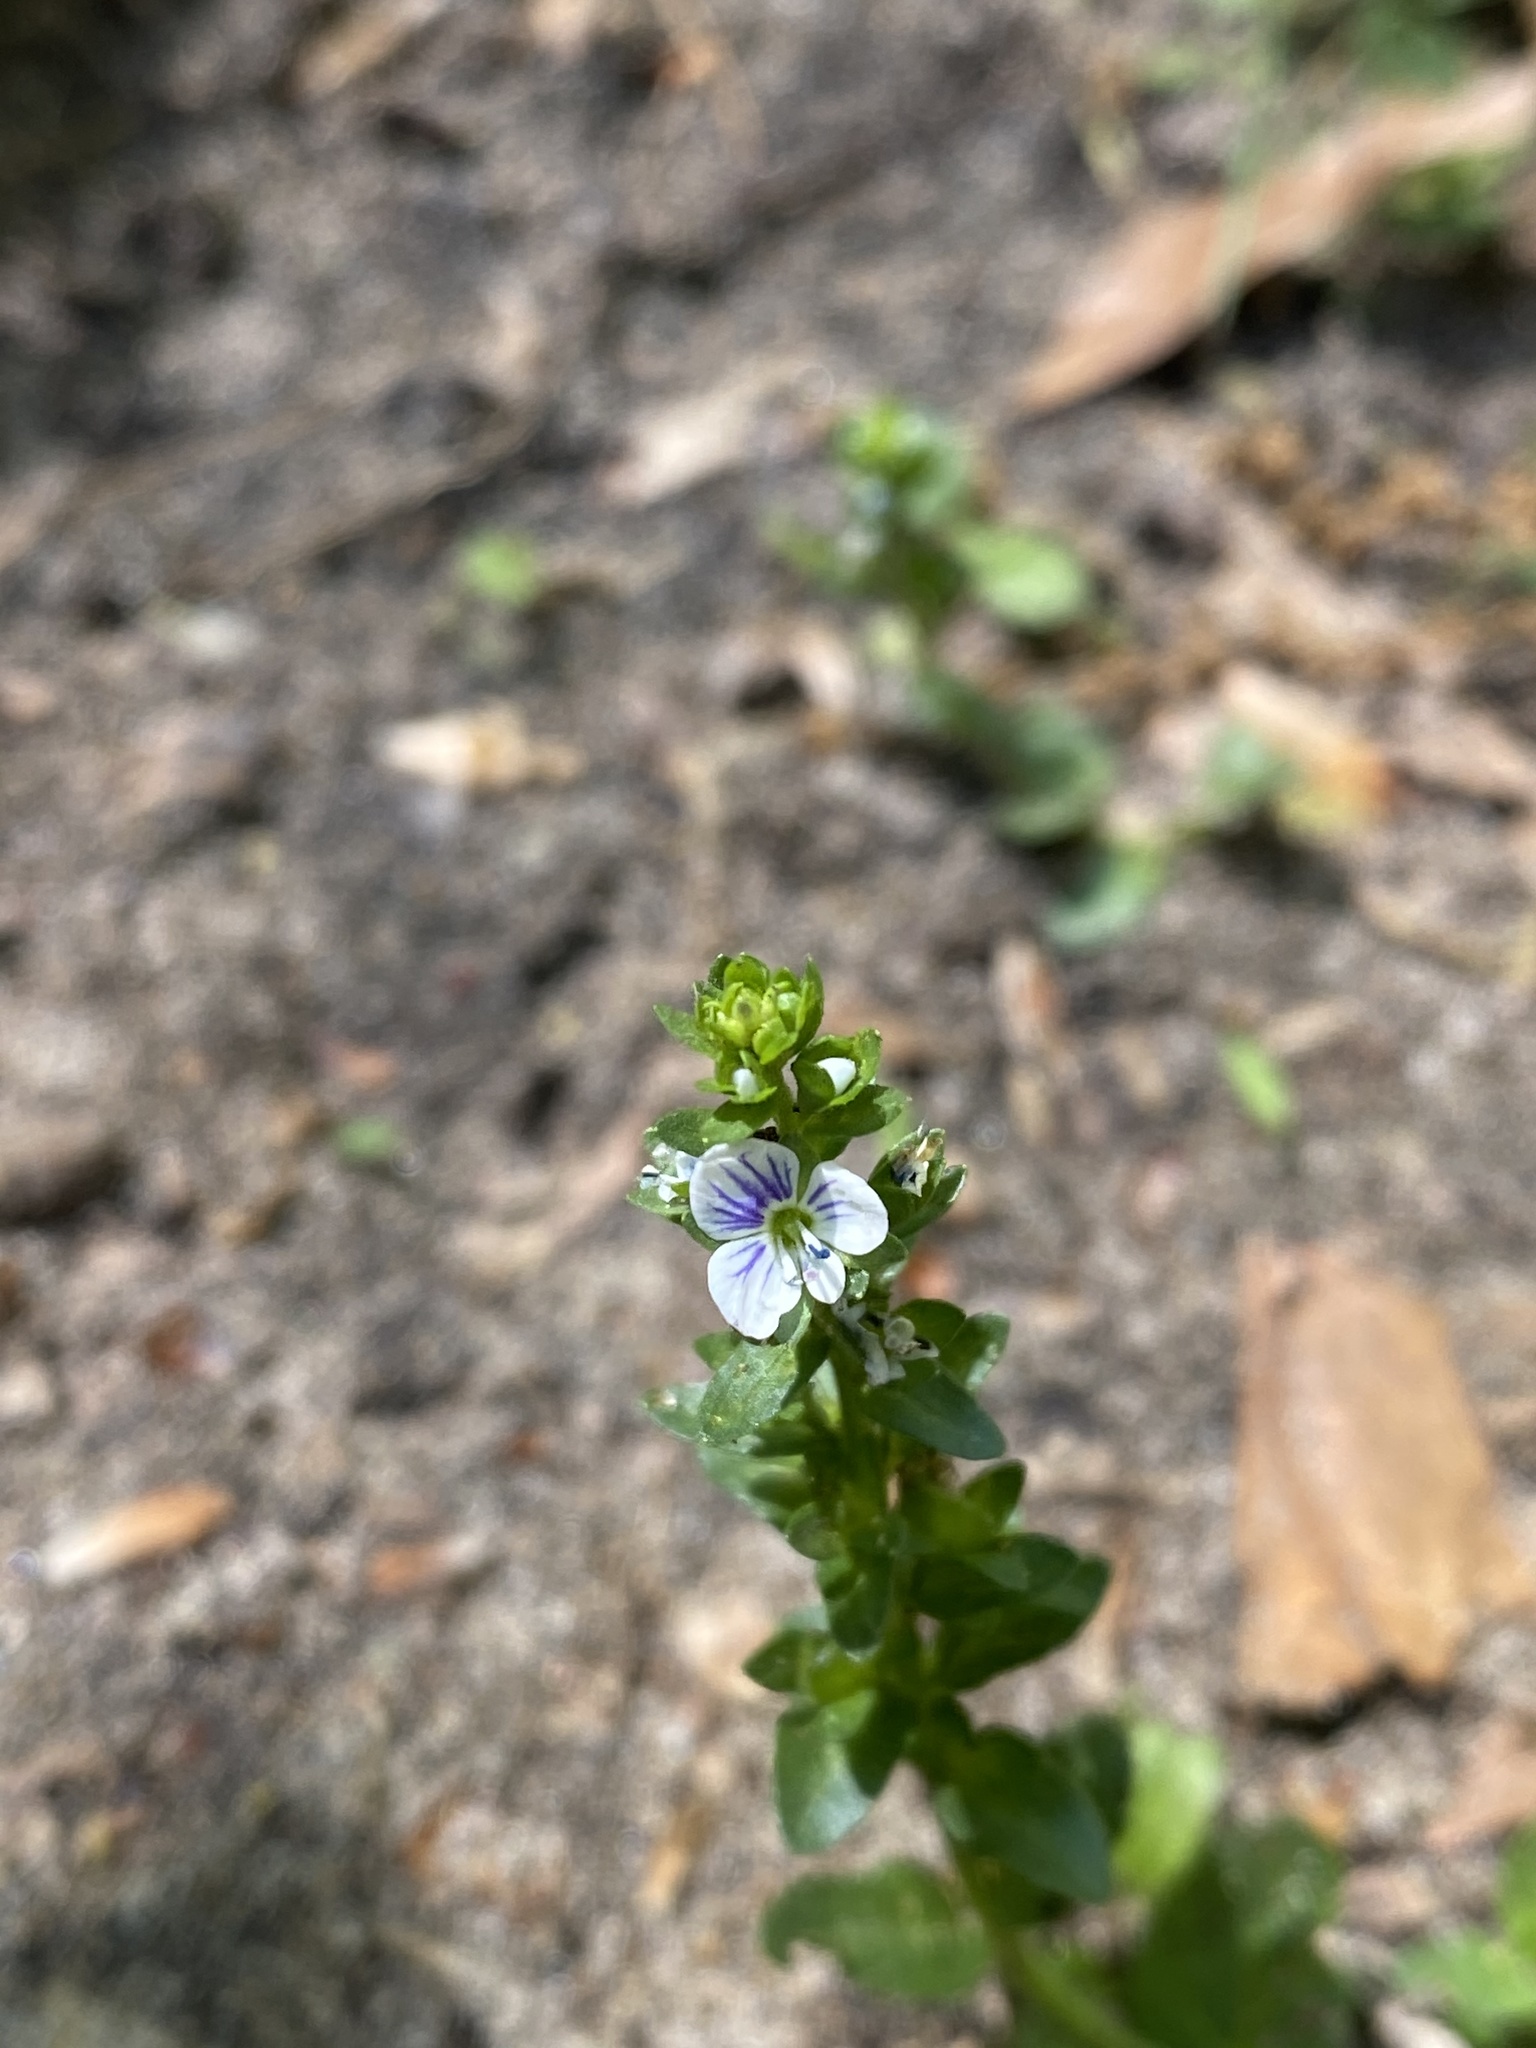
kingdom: Plantae
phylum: Tracheophyta
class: Magnoliopsida
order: Lamiales
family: Plantaginaceae
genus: Veronica
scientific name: Veronica serpyllifolia
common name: Thyme-leaved speedwell
